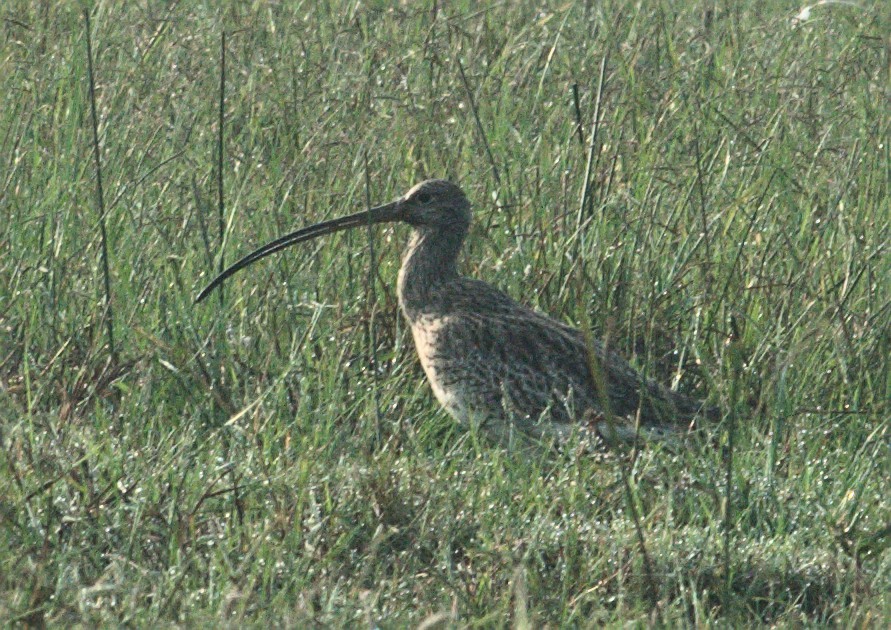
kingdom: Animalia
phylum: Chordata
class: Aves
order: Charadriiformes
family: Scolopacidae
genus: Numenius
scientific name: Numenius arquata
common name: Eurasian curlew
